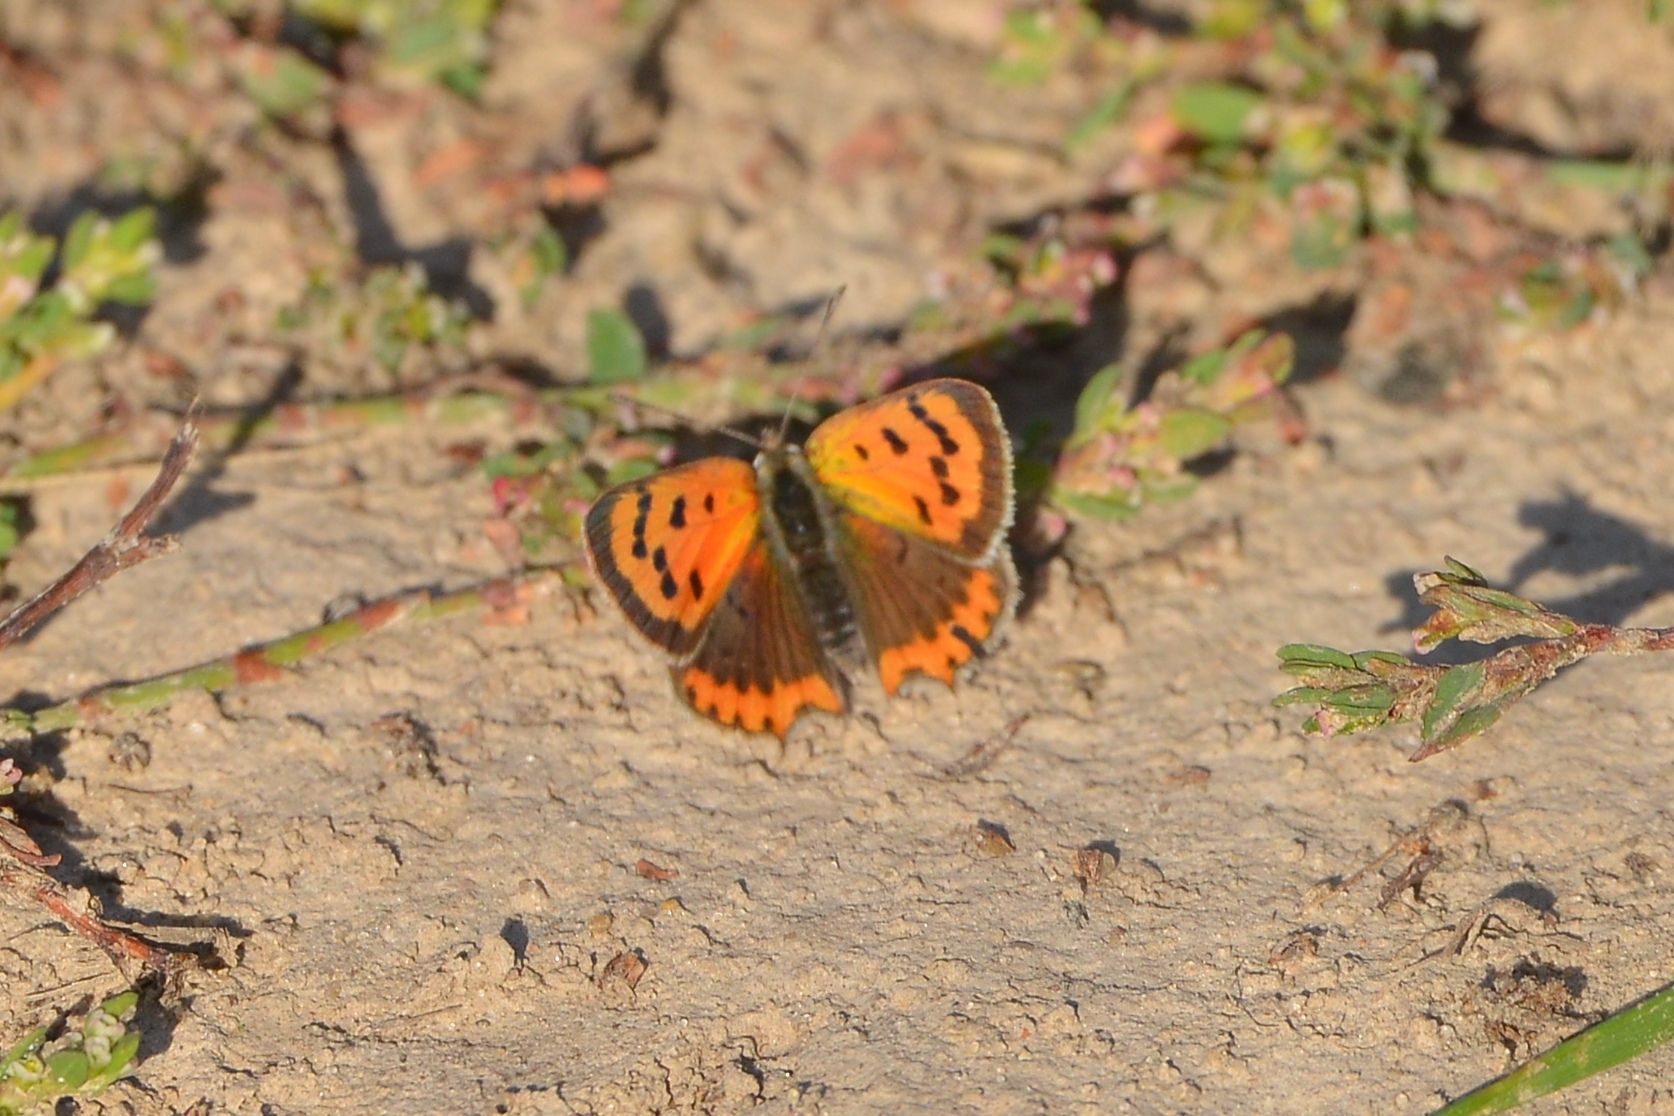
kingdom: Animalia
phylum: Arthropoda
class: Insecta
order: Lepidoptera
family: Lycaenidae
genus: Lycaena
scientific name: Lycaena phlaeas
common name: Small copper
